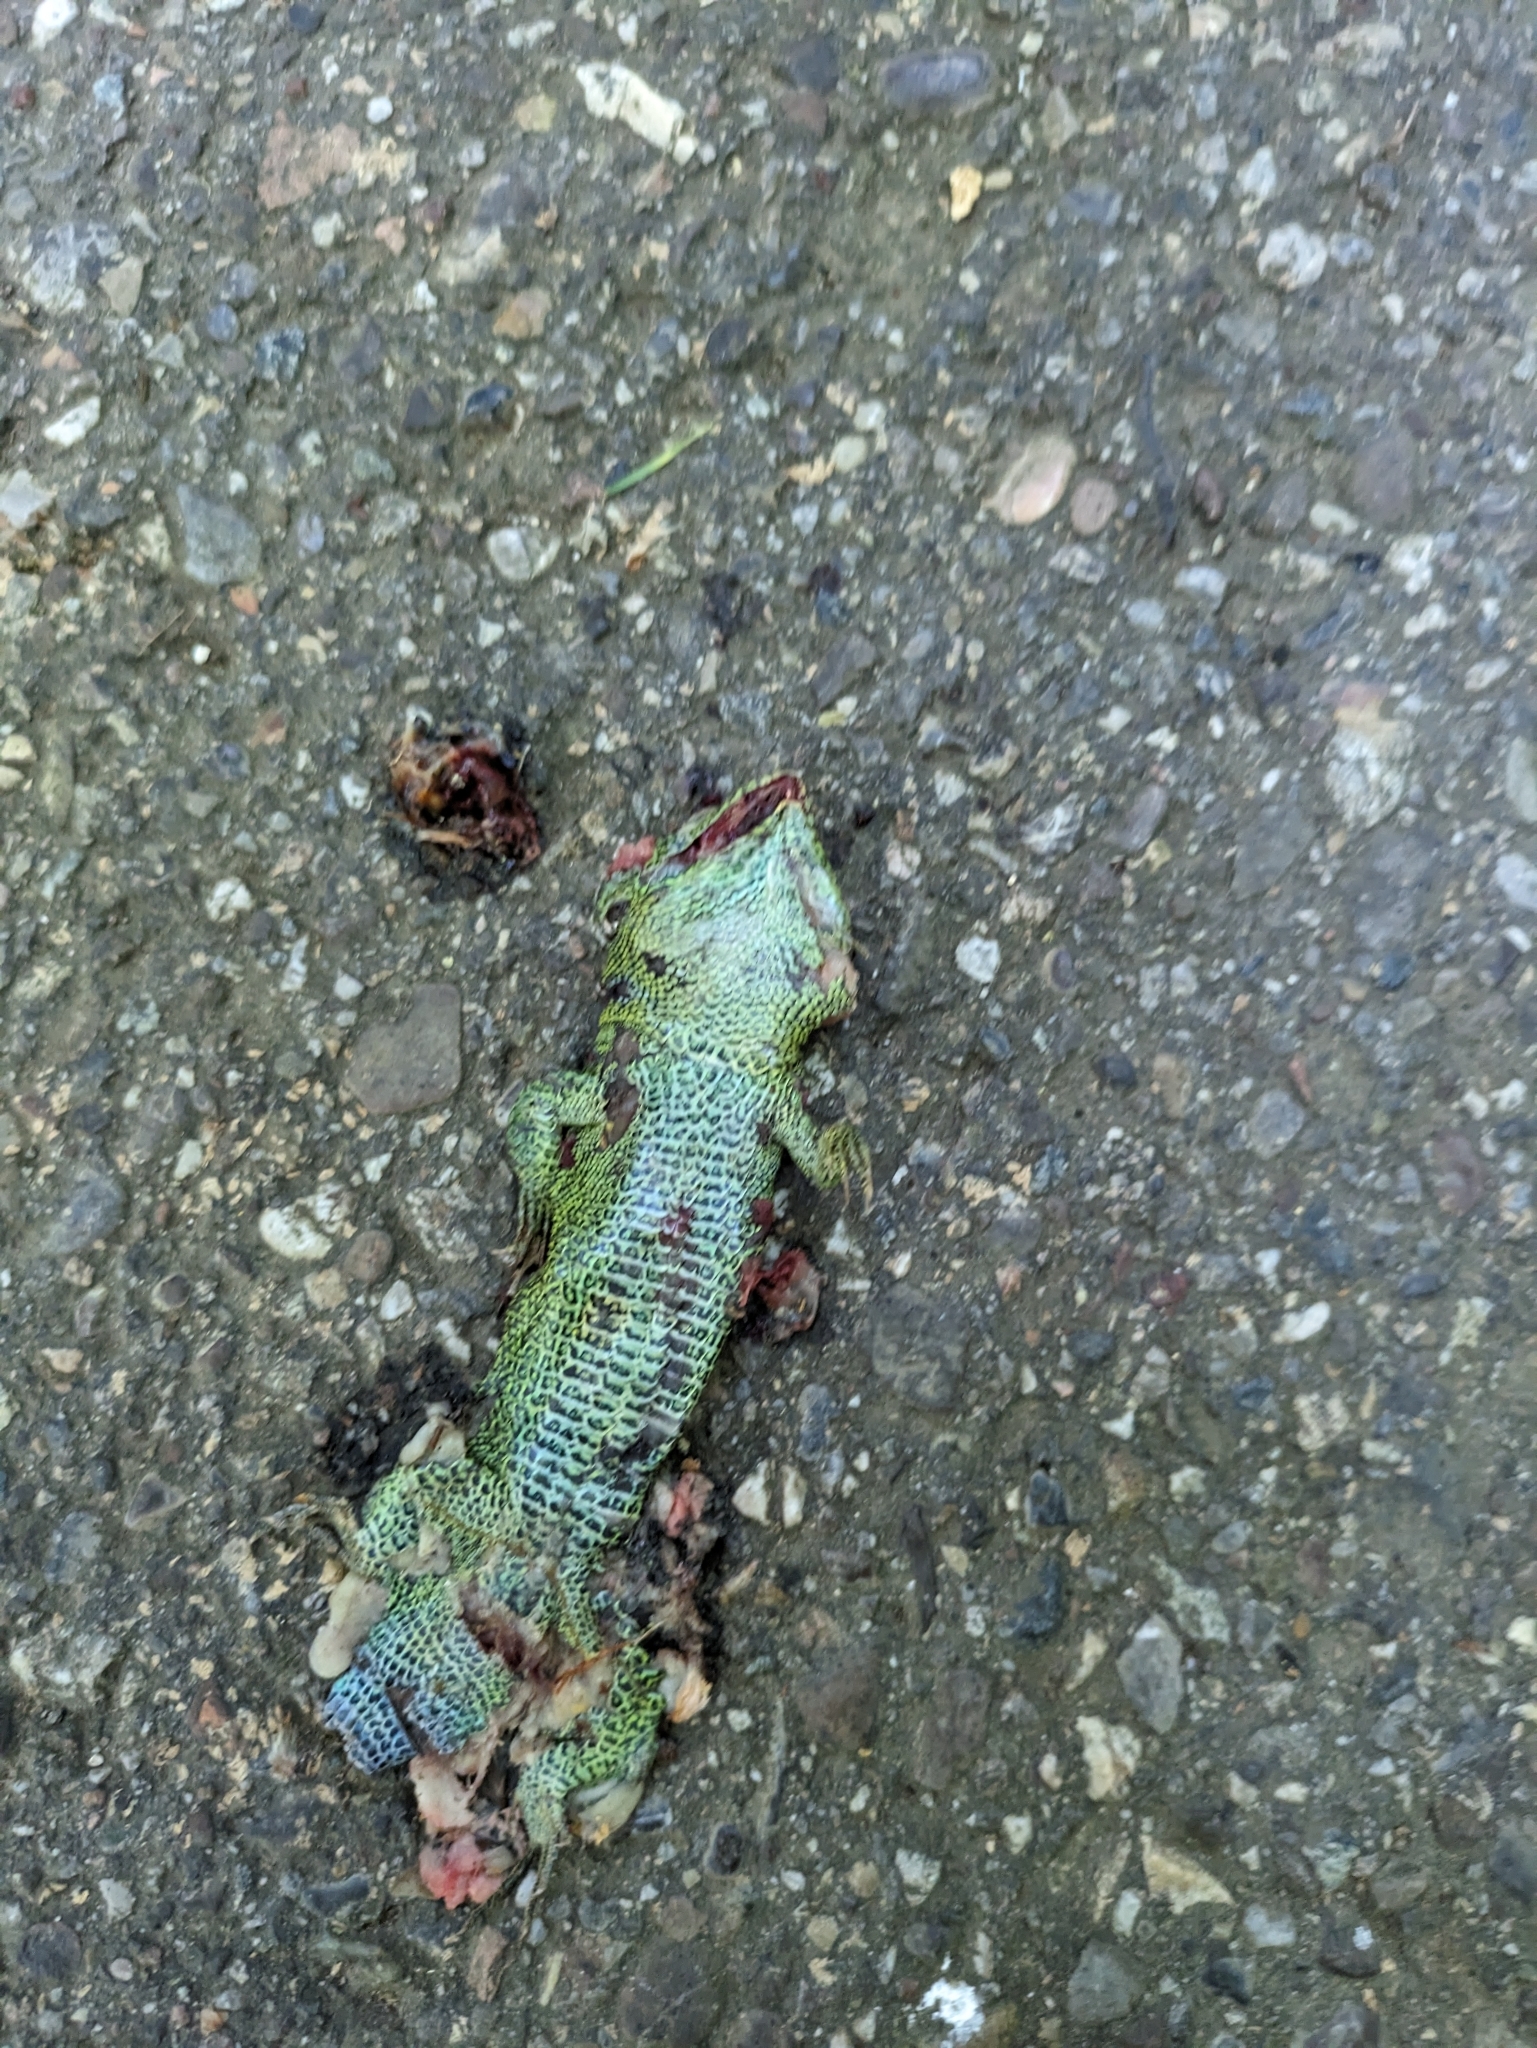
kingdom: Animalia
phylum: Chordata
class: Squamata
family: Lacertidae
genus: Lacerta
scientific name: Lacerta agilis
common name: Sand lizard
